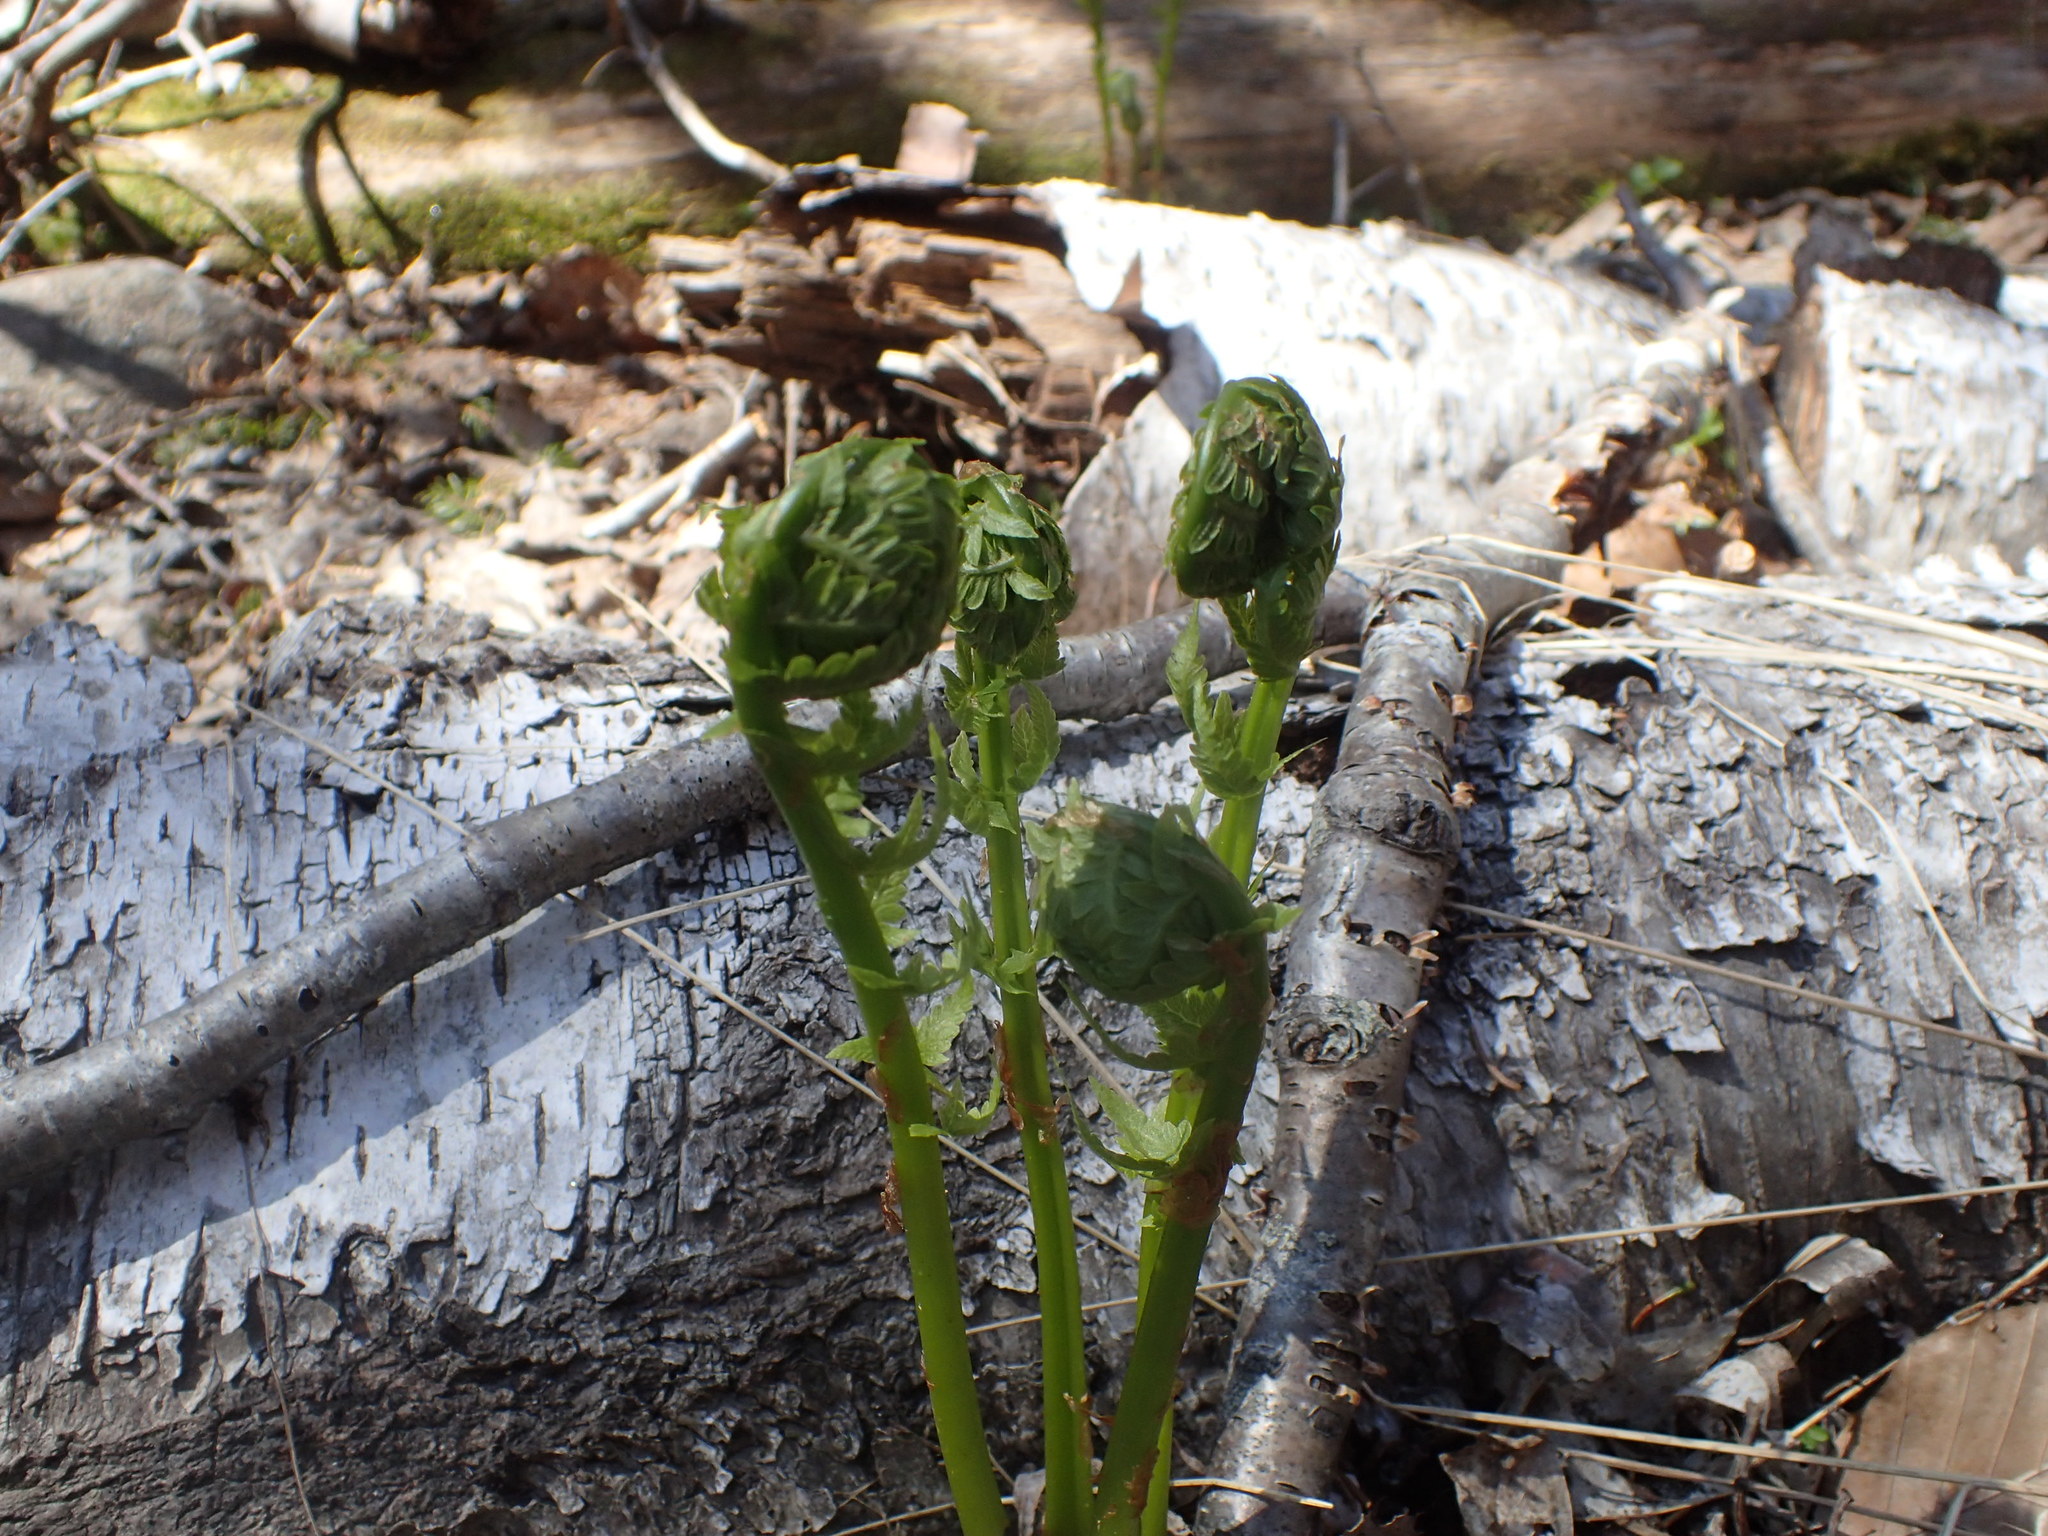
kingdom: Plantae
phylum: Tracheophyta
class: Polypodiopsida
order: Polypodiales
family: Onocleaceae
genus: Matteuccia
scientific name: Matteuccia struthiopteris
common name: Ostrich fern
